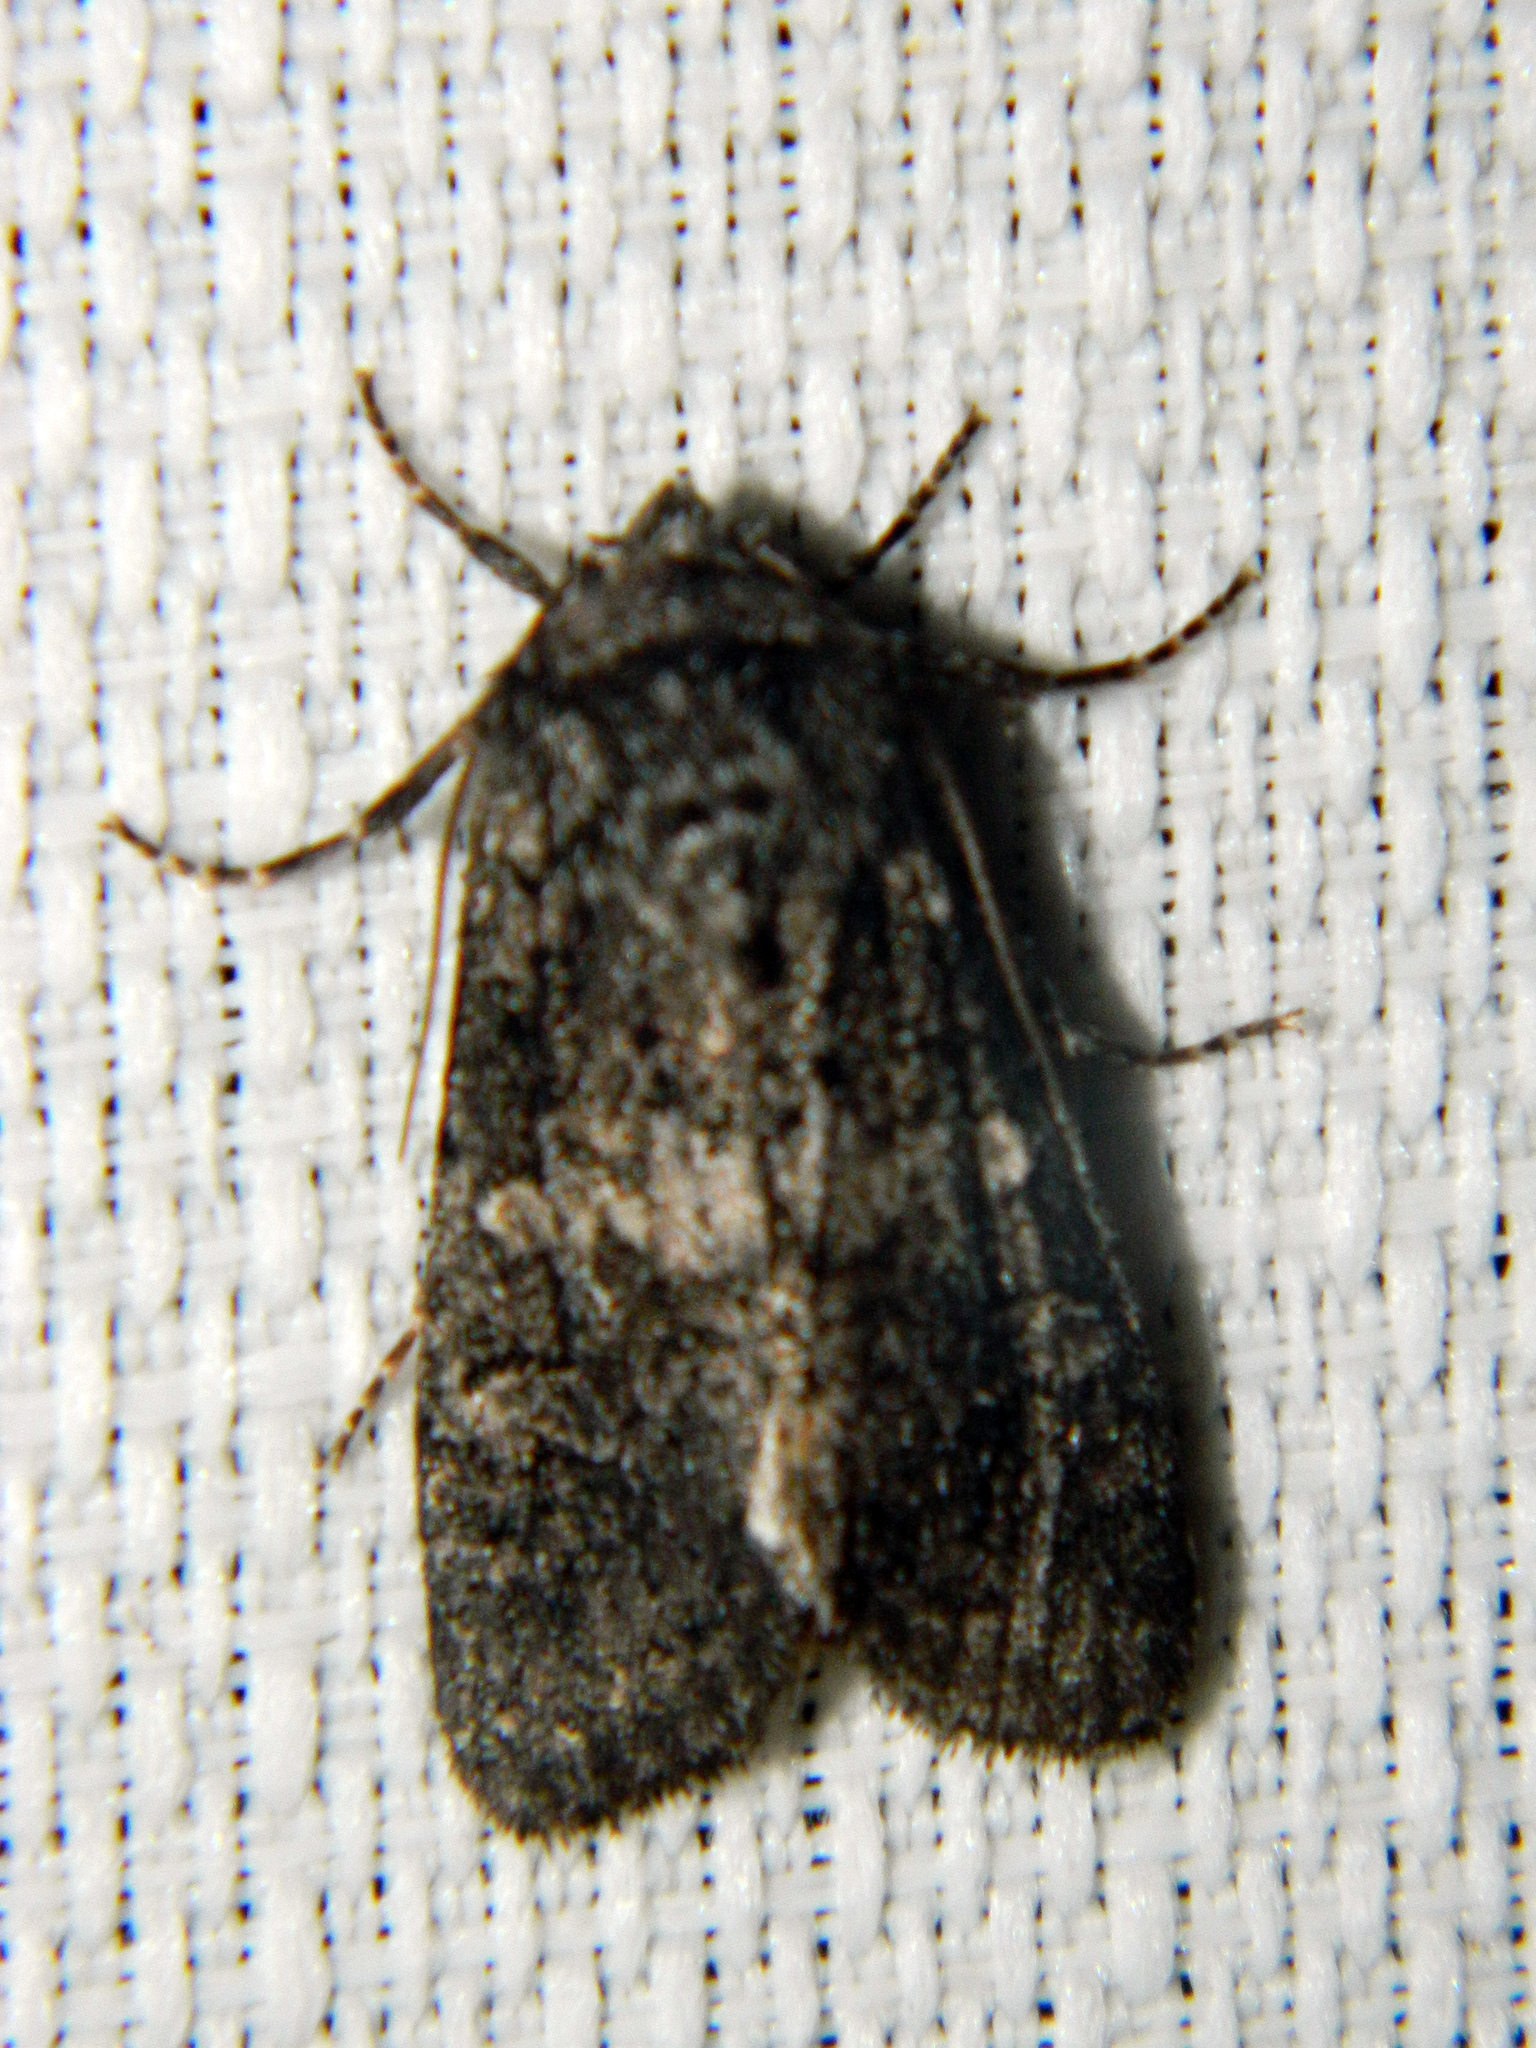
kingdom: Animalia
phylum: Arthropoda
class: Insecta
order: Lepidoptera
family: Noctuidae
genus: Egira
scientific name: Egira dolosa
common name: Lined black aspen cat.
